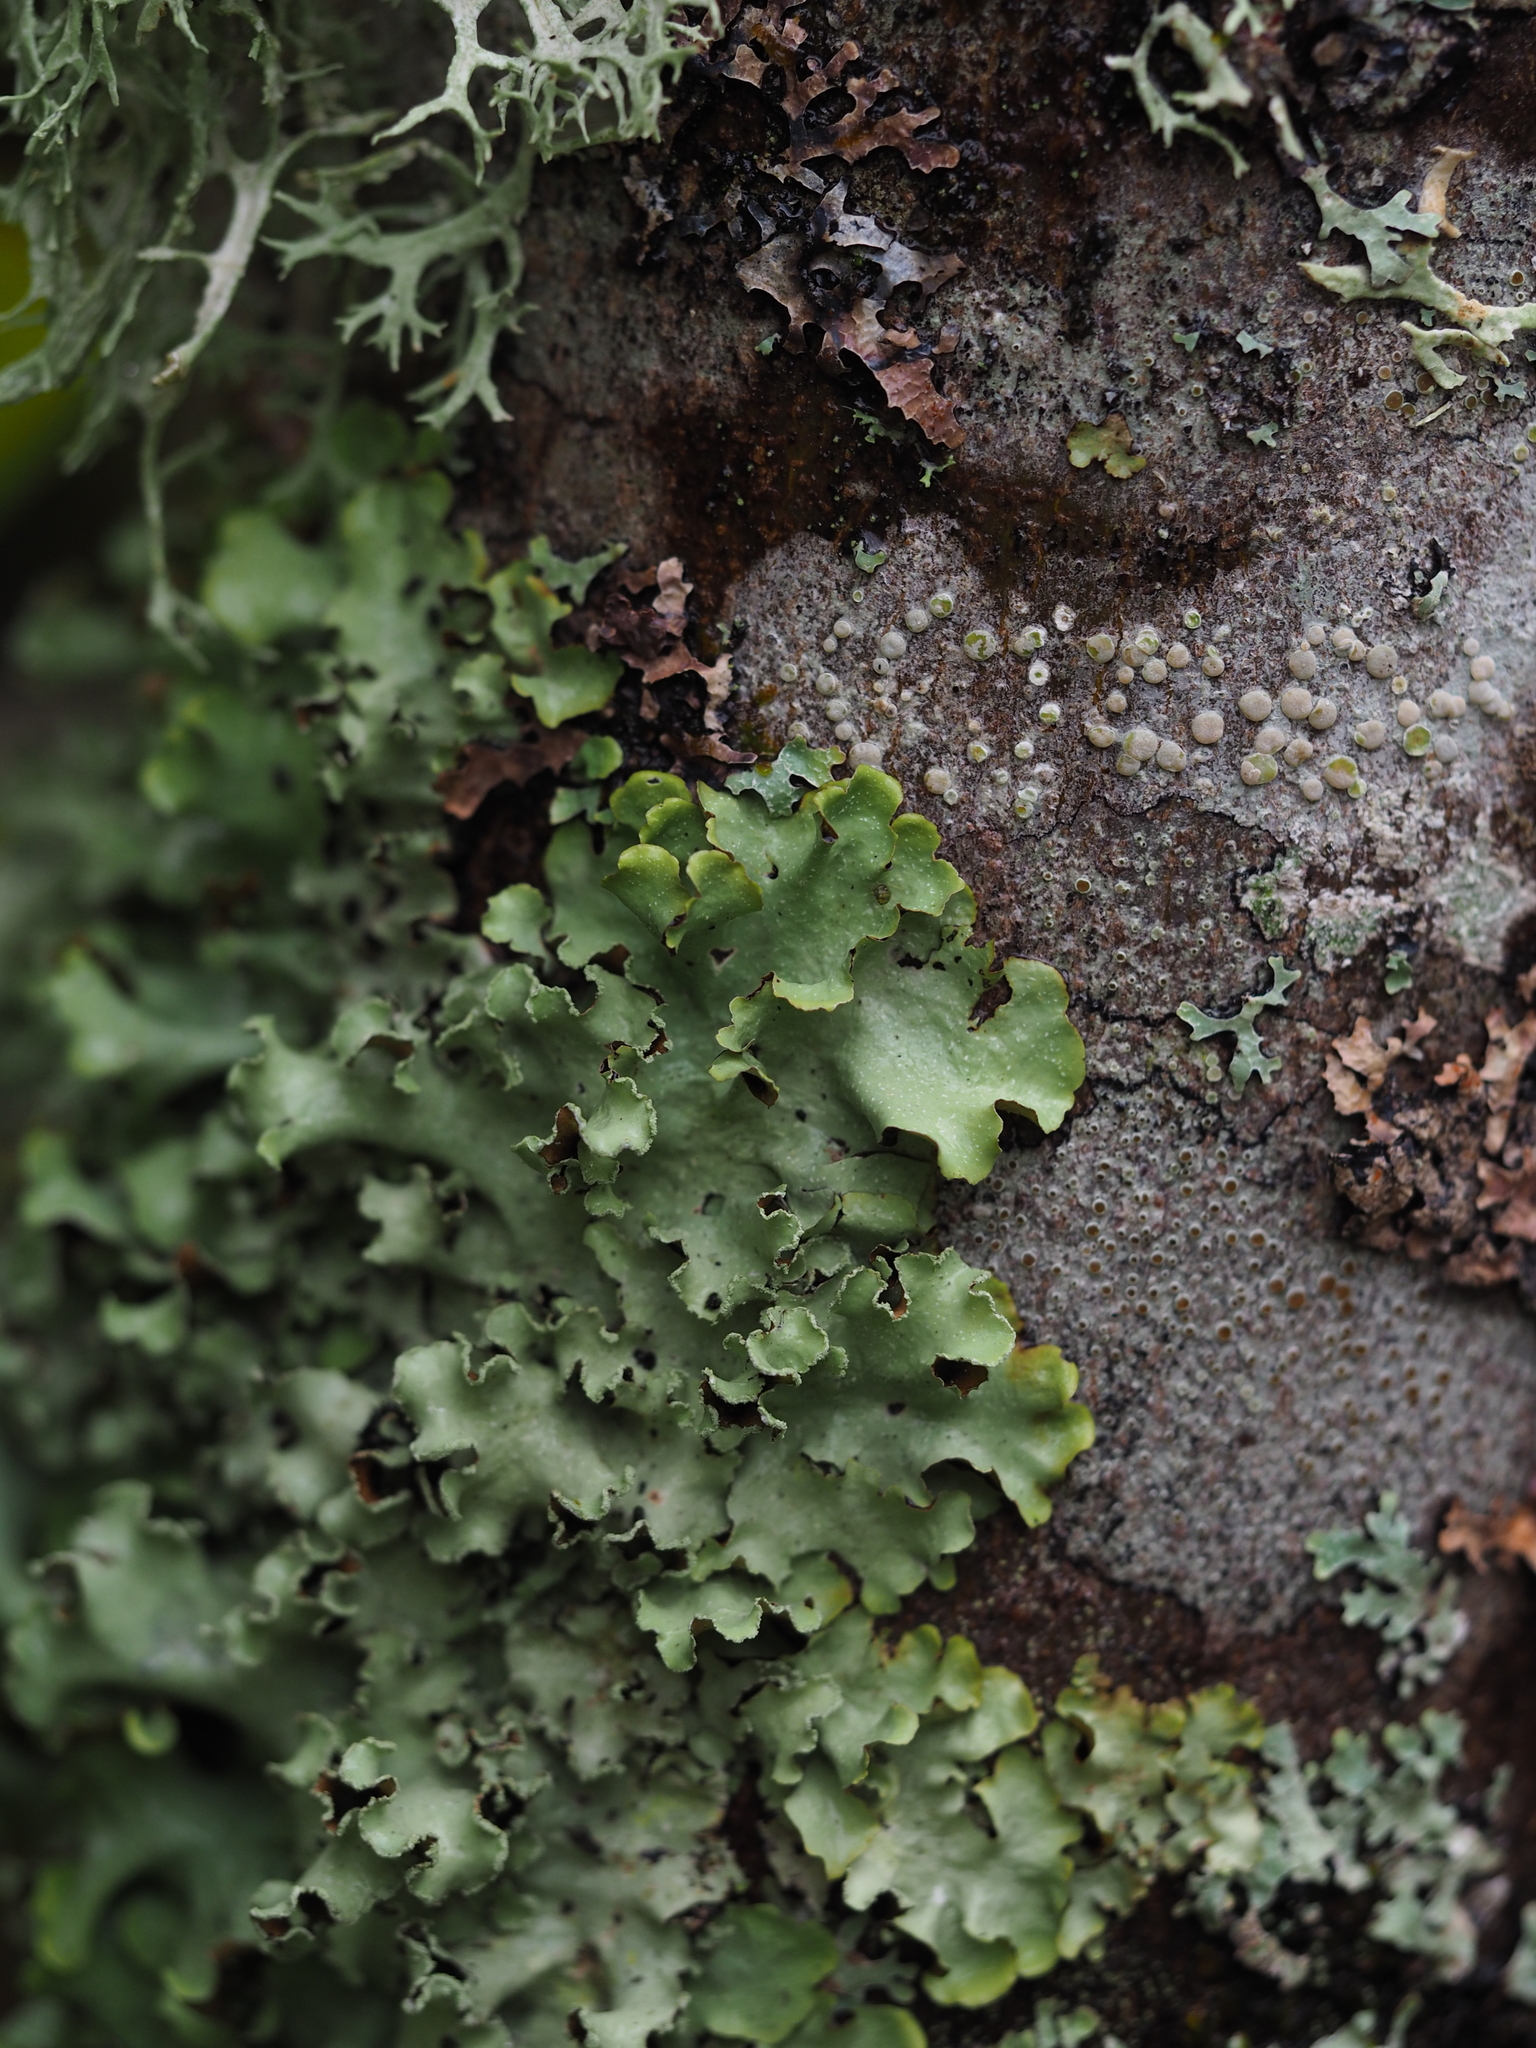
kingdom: Fungi
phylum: Ascomycota
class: Lecanoromycetes
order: Lecanorales
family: Parmeliaceae
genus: Cetrelia
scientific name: Cetrelia
